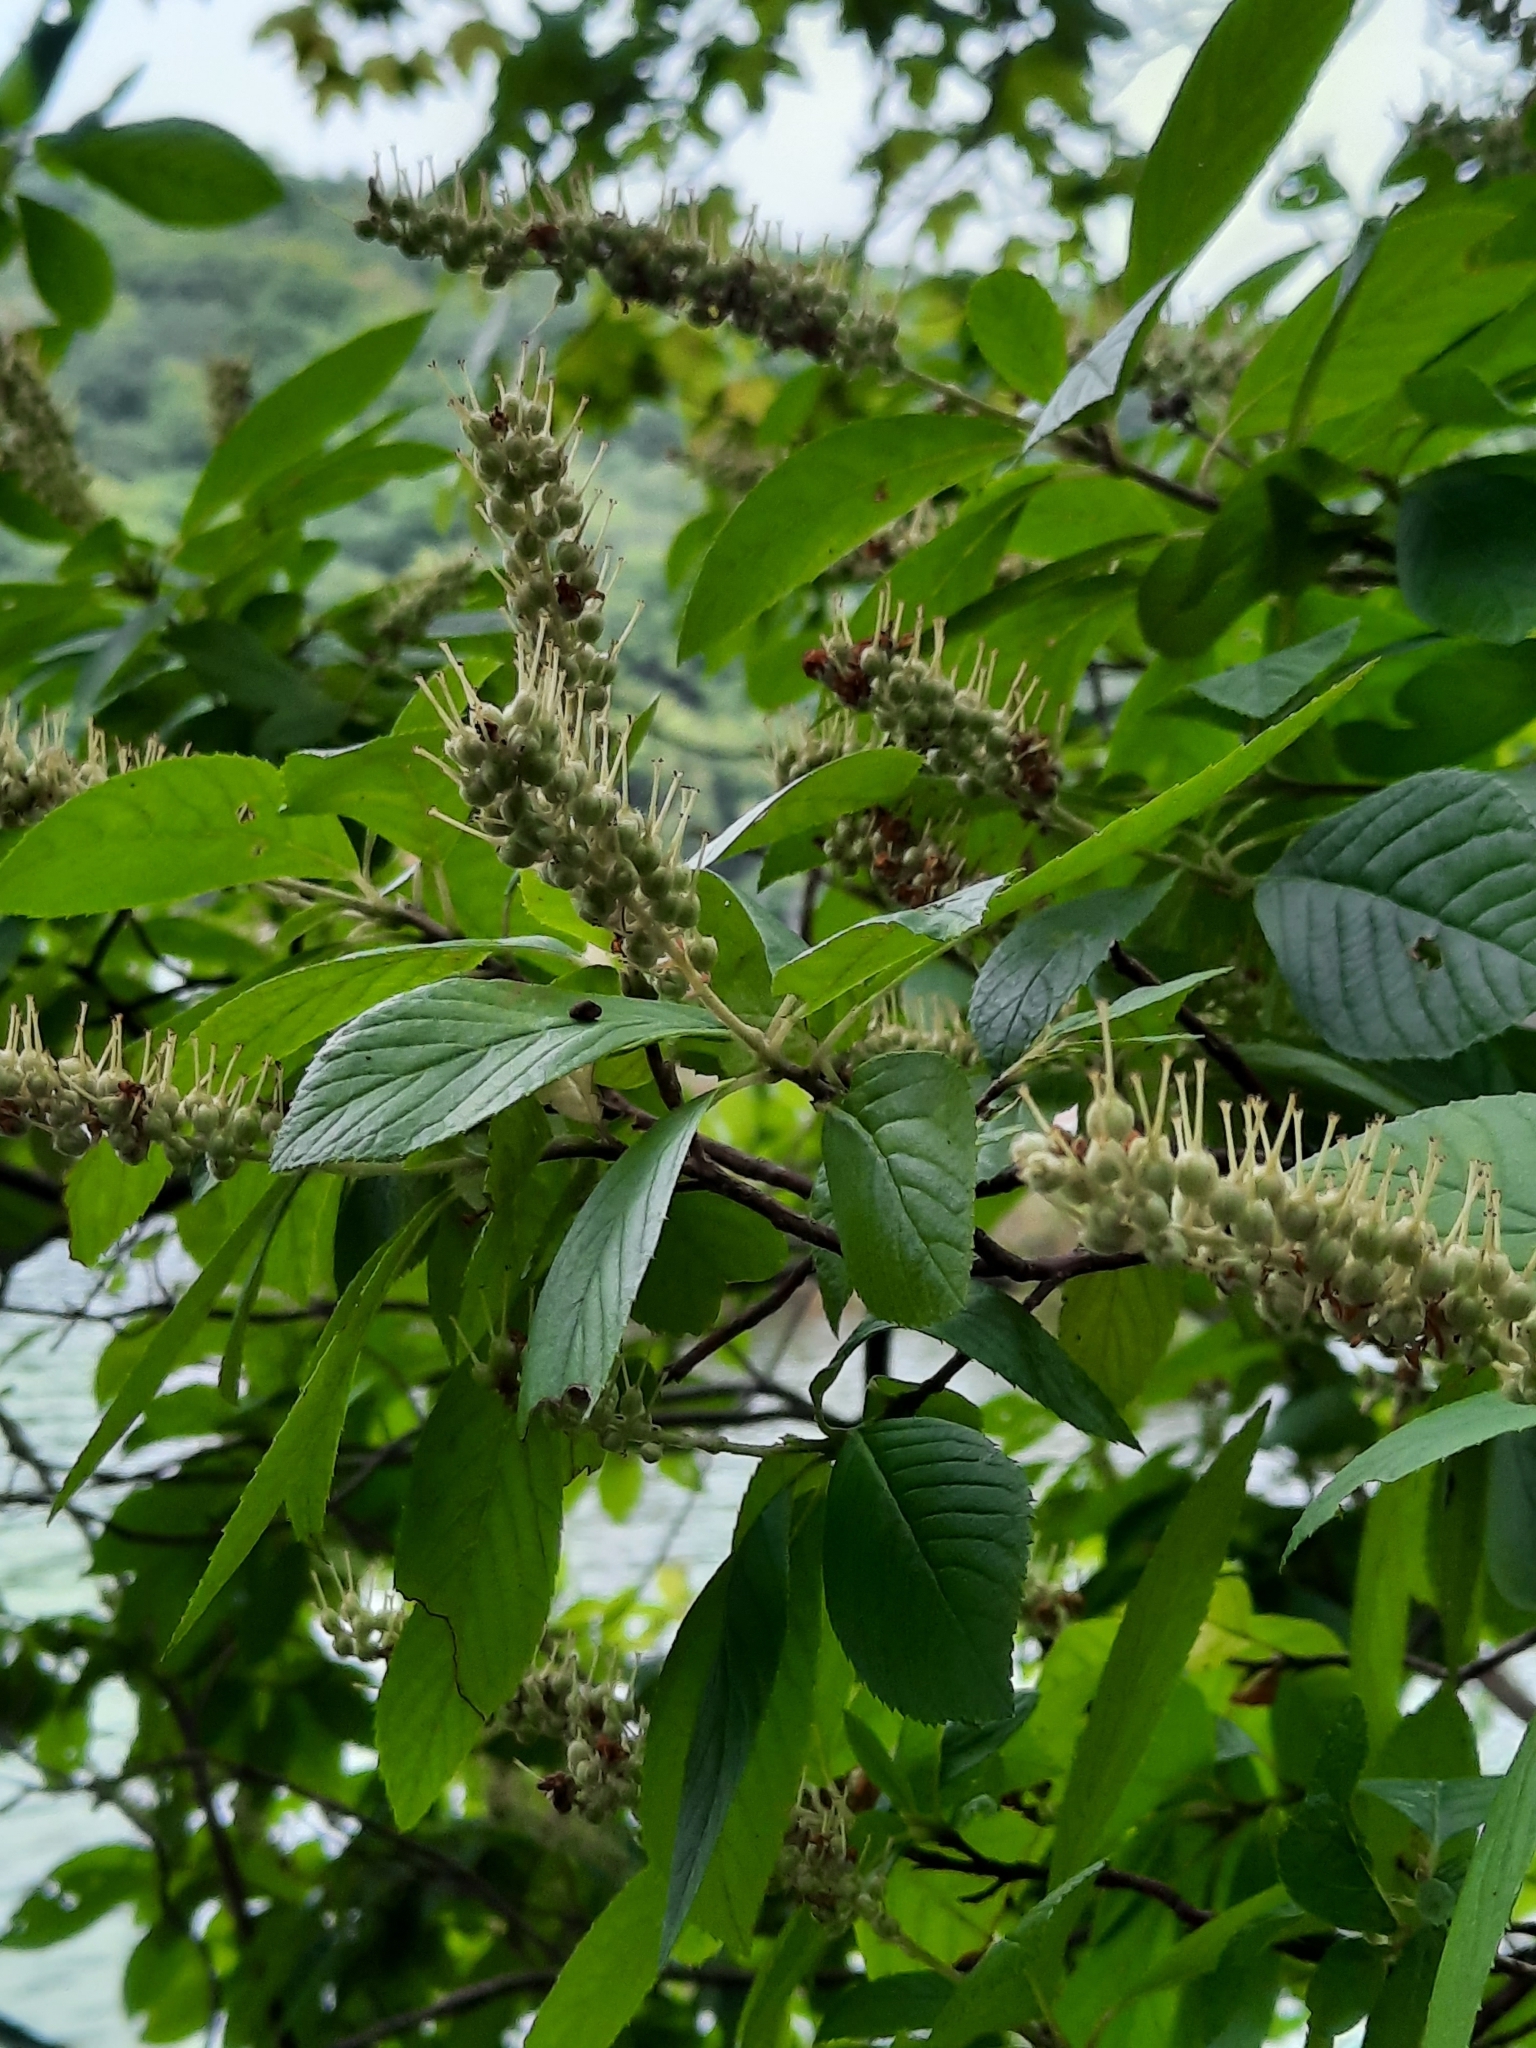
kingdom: Plantae
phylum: Tracheophyta
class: Magnoliopsida
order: Ericales
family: Clethraceae
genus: Clethra
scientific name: Clethra alnifolia
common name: Sweet pepperbush
